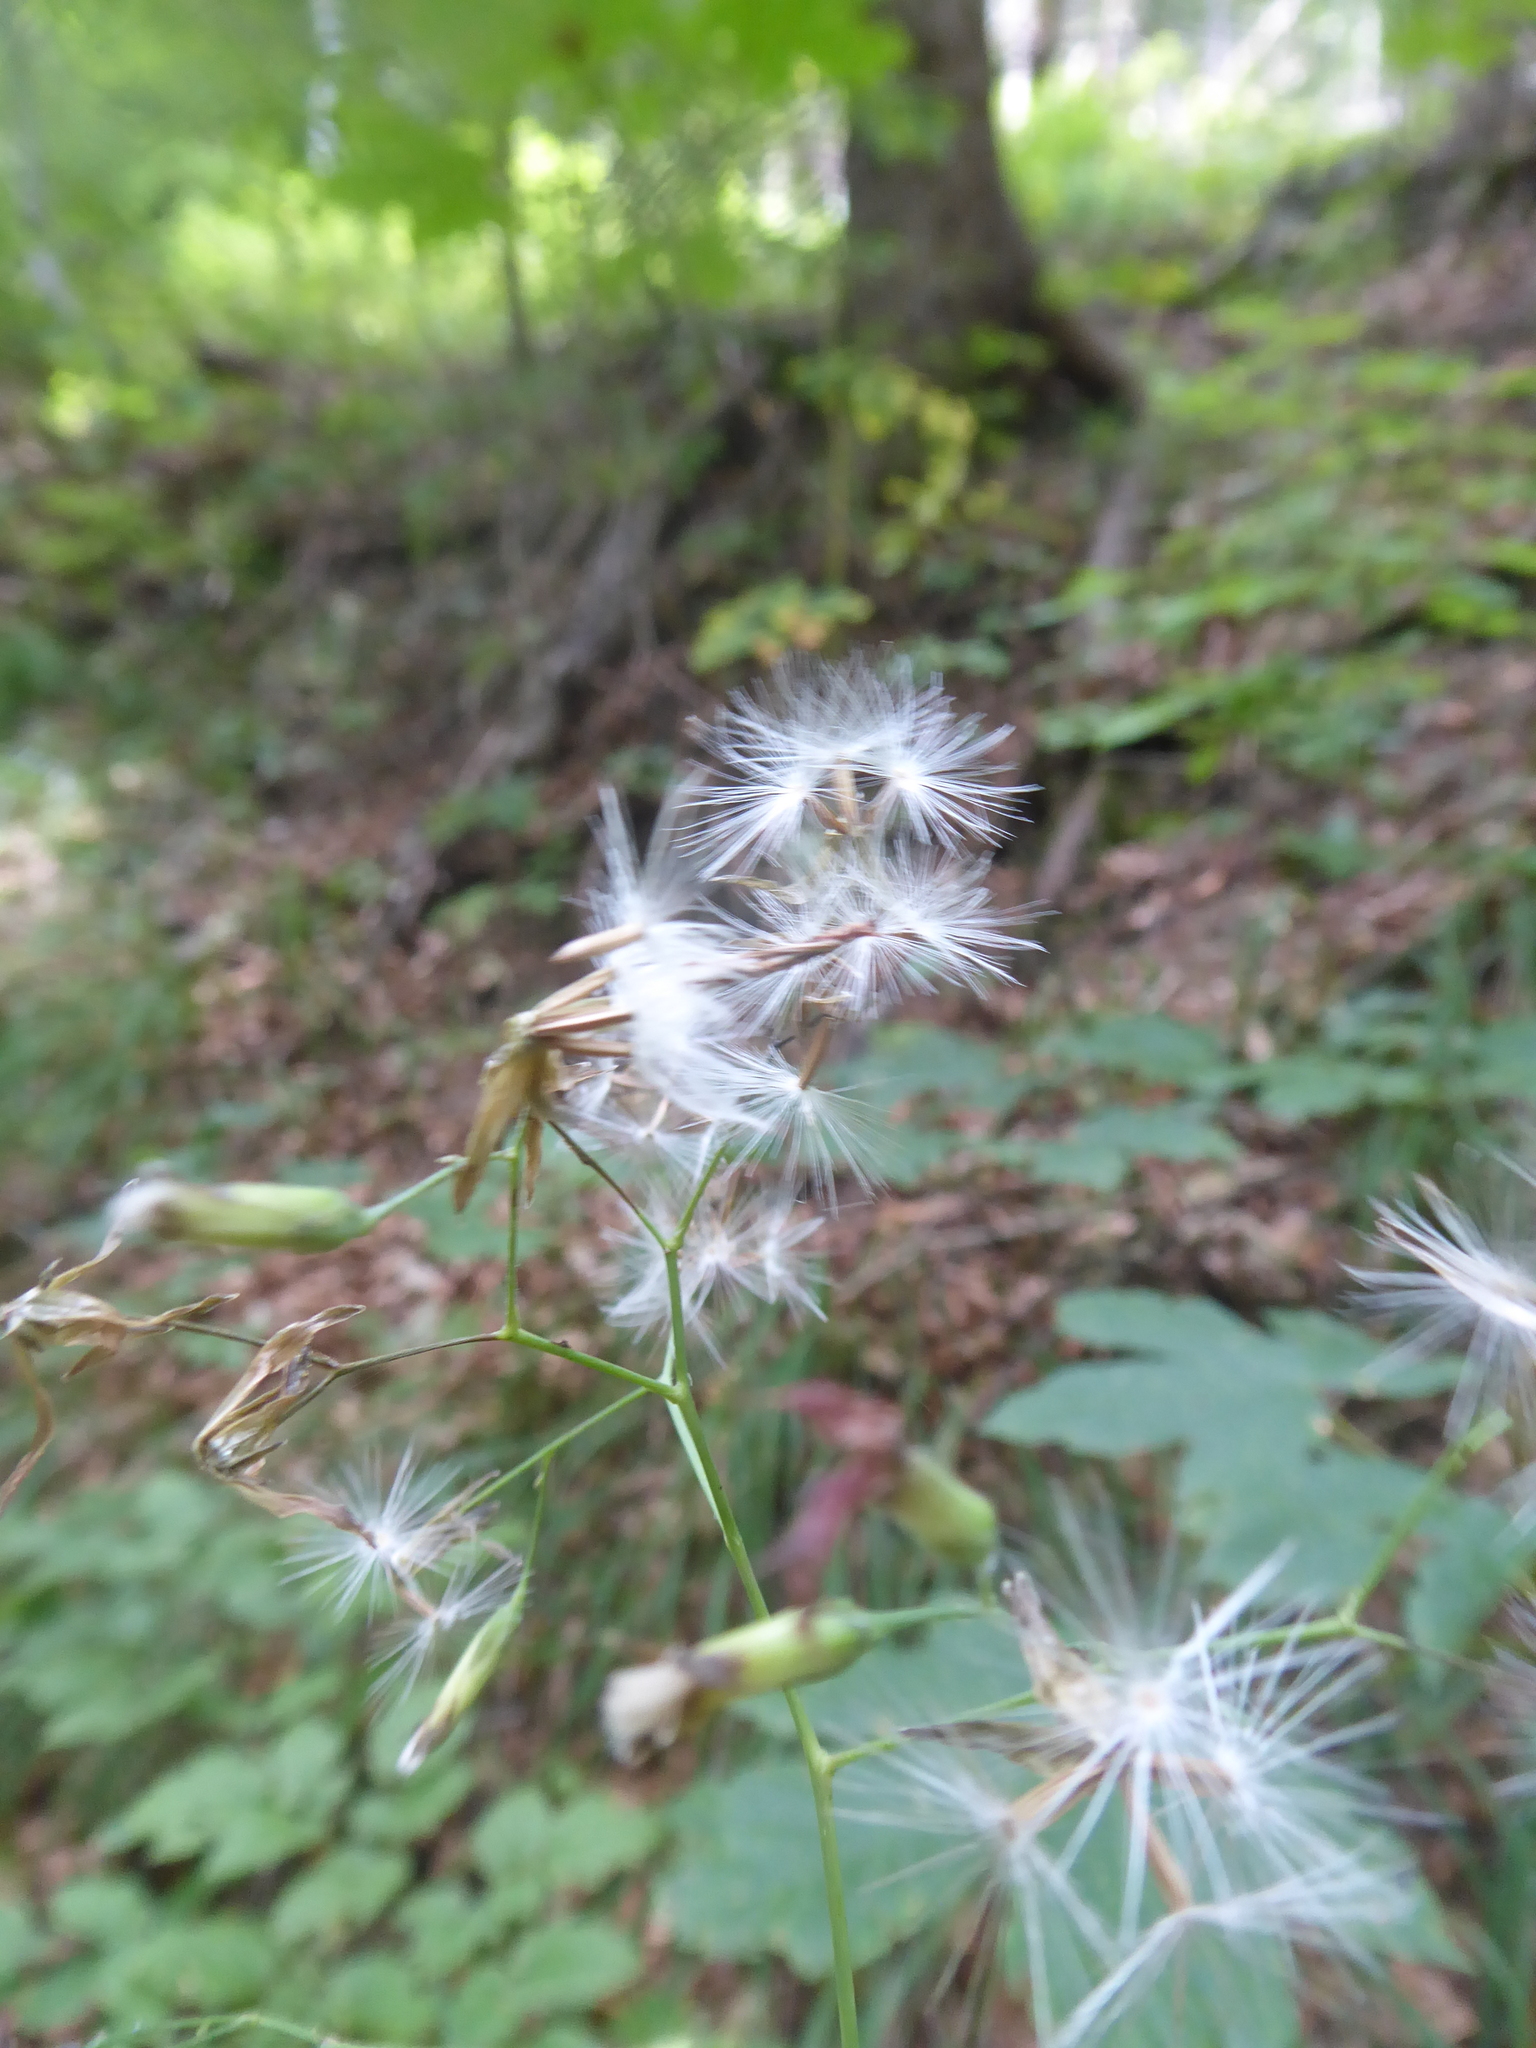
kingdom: Plantae
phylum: Tracheophyta
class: Magnoliopsida
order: Asterales
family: Asteraceae
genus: Prenanthes
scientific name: Prenanthes purpurea
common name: Purple lettuce
